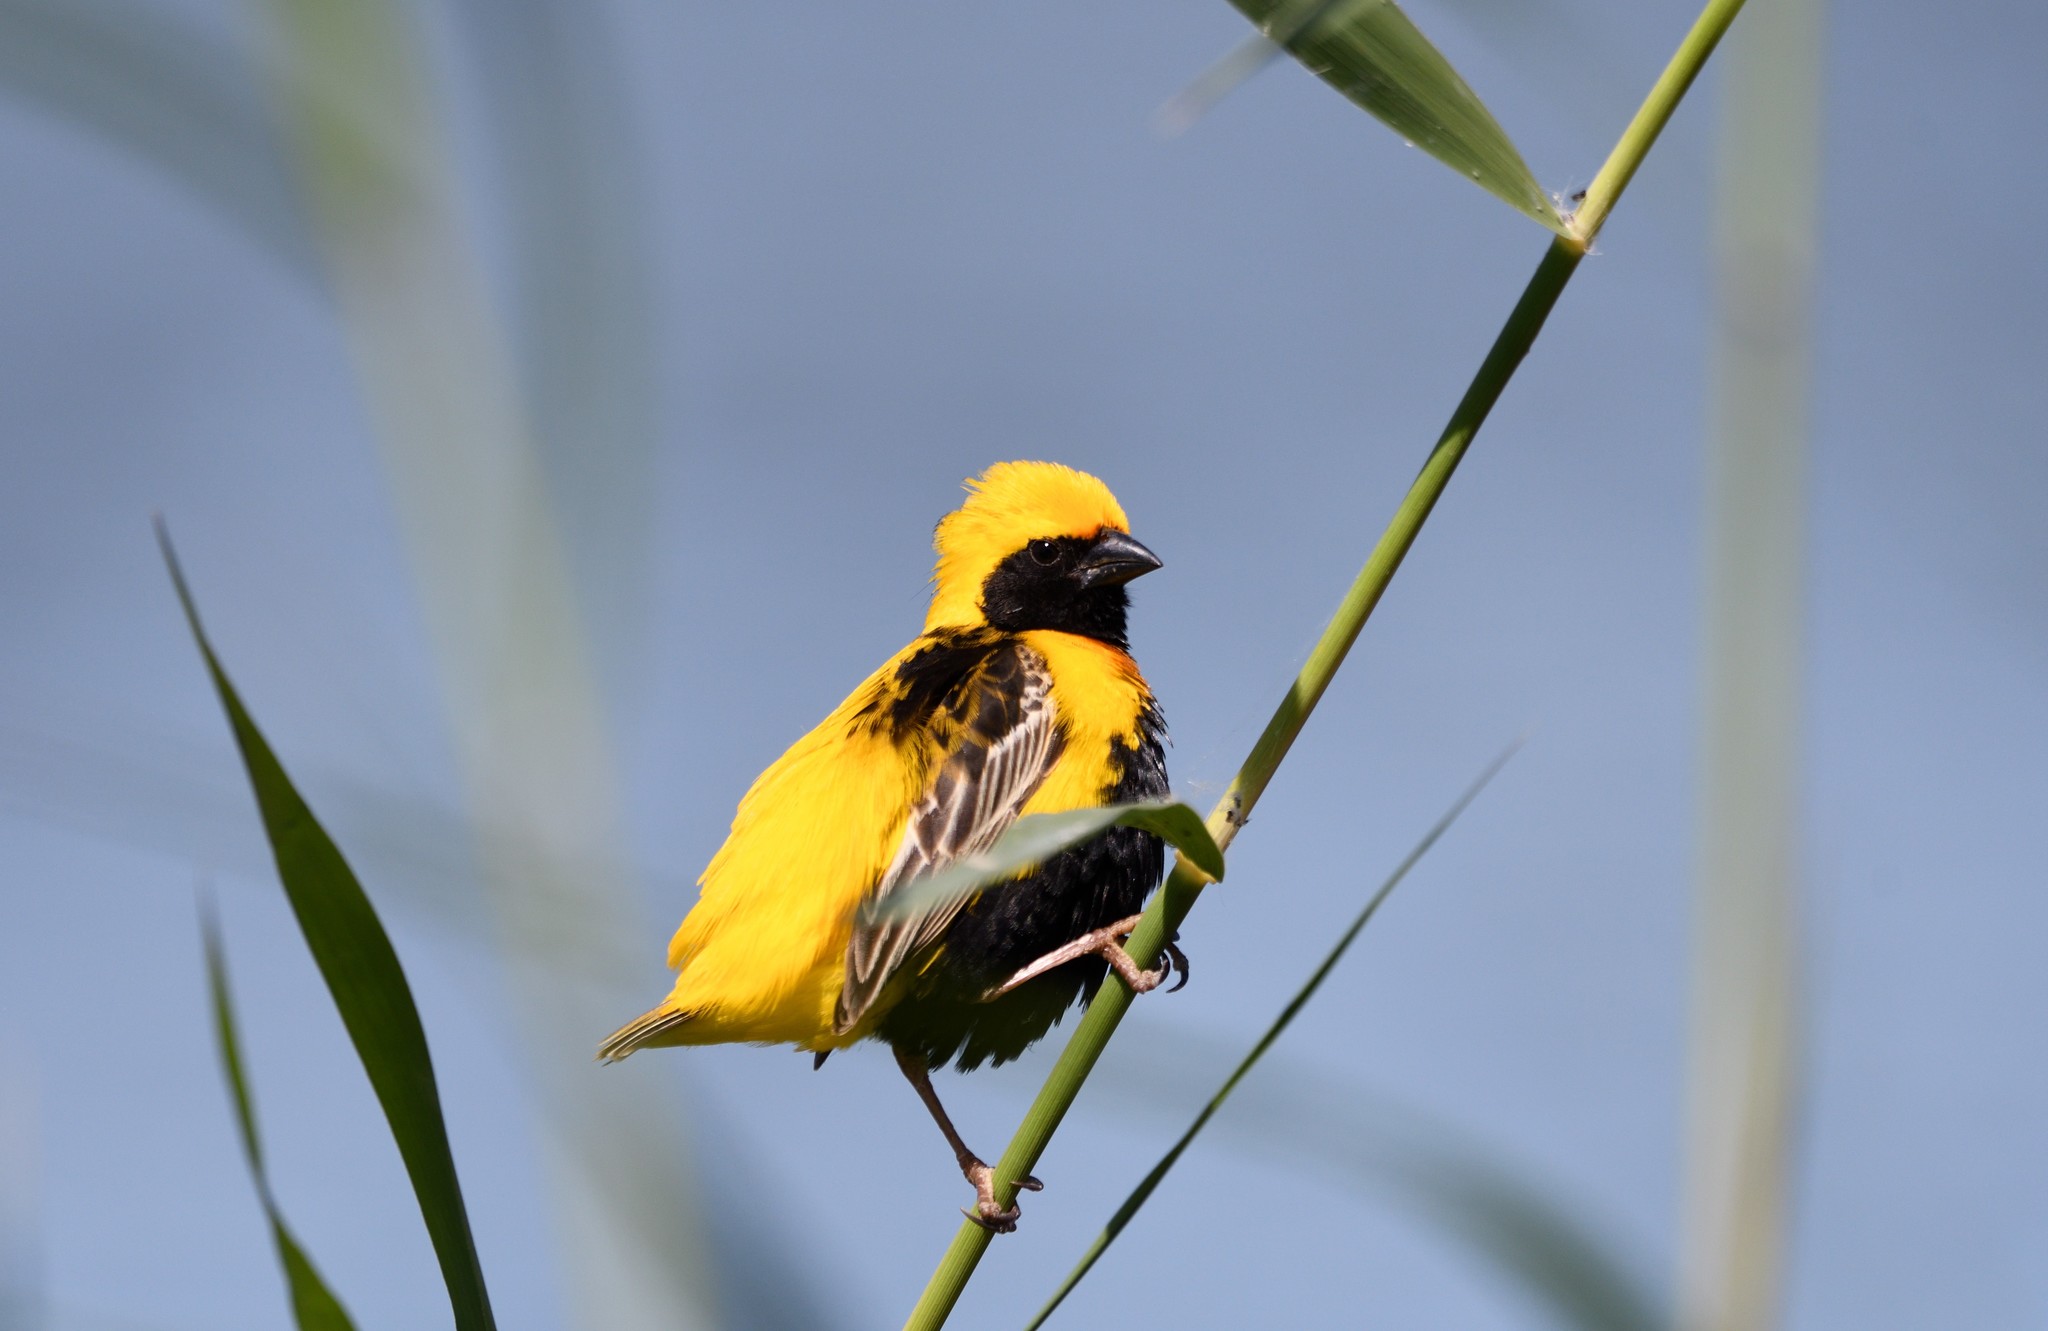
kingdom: Animalia
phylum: Chordata
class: Aves
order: Passeriformes
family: Ploceidae
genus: Euplectes
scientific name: Euplectes afer
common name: Yellow-crowned bishop
